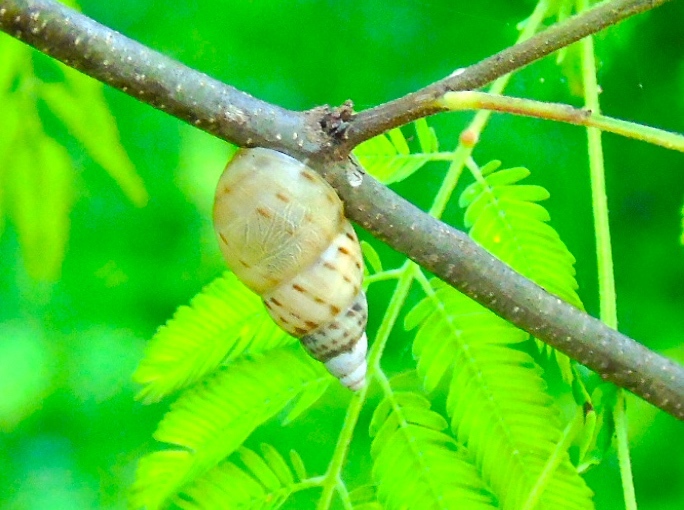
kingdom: Animalia
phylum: Mollusca
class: Gastropoda
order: Stylommatophora
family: Bulimulidae
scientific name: Bulimulidae
